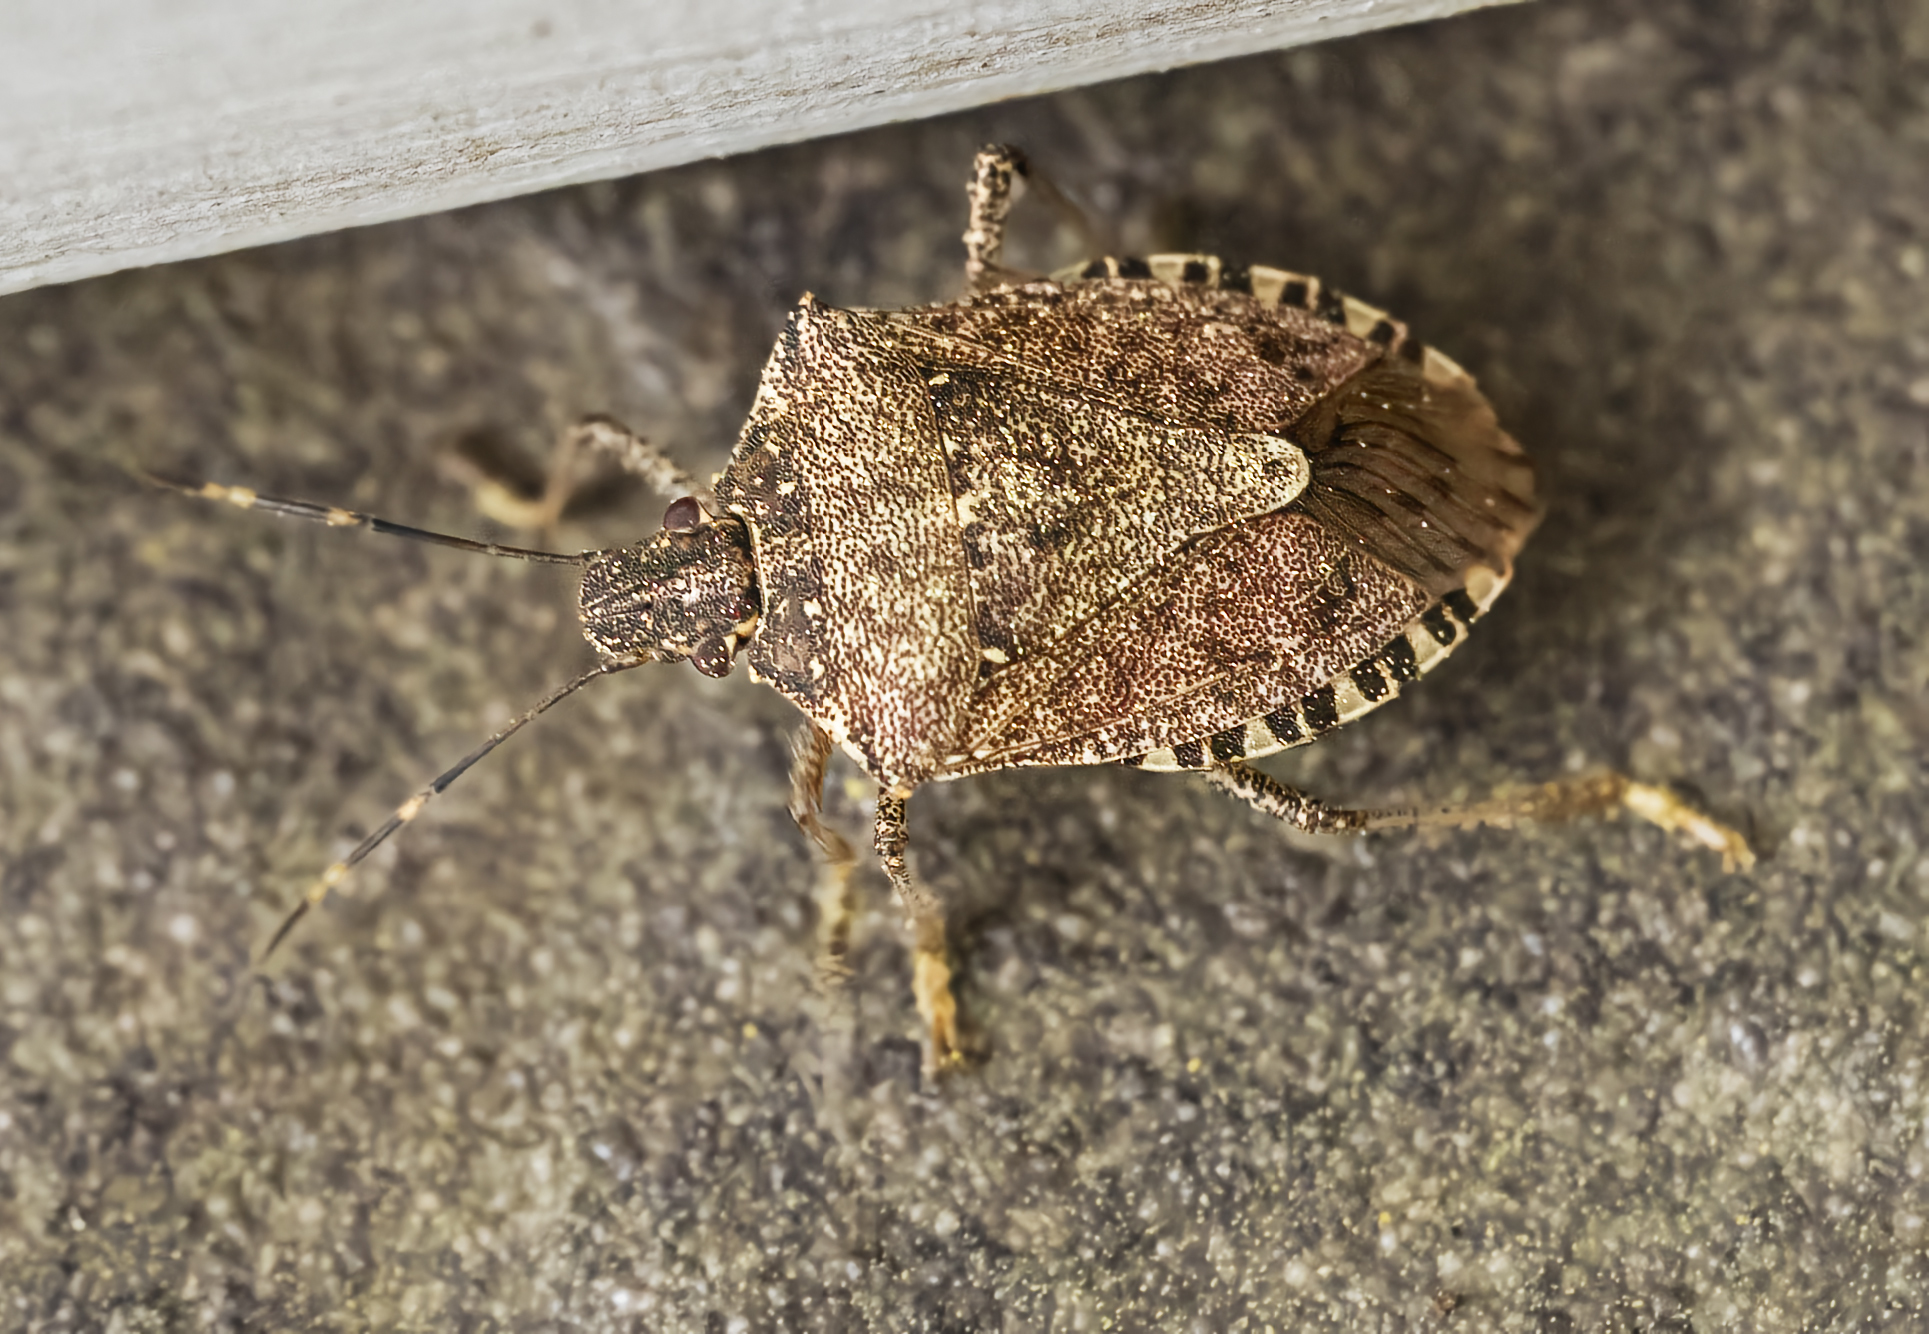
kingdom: Animalia
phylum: Arthropoda
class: Insecta
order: Hemiptera
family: Pentatomidae
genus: Halyomorpha
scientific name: Halyomorpha halys
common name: Brown marmorated stink bug
